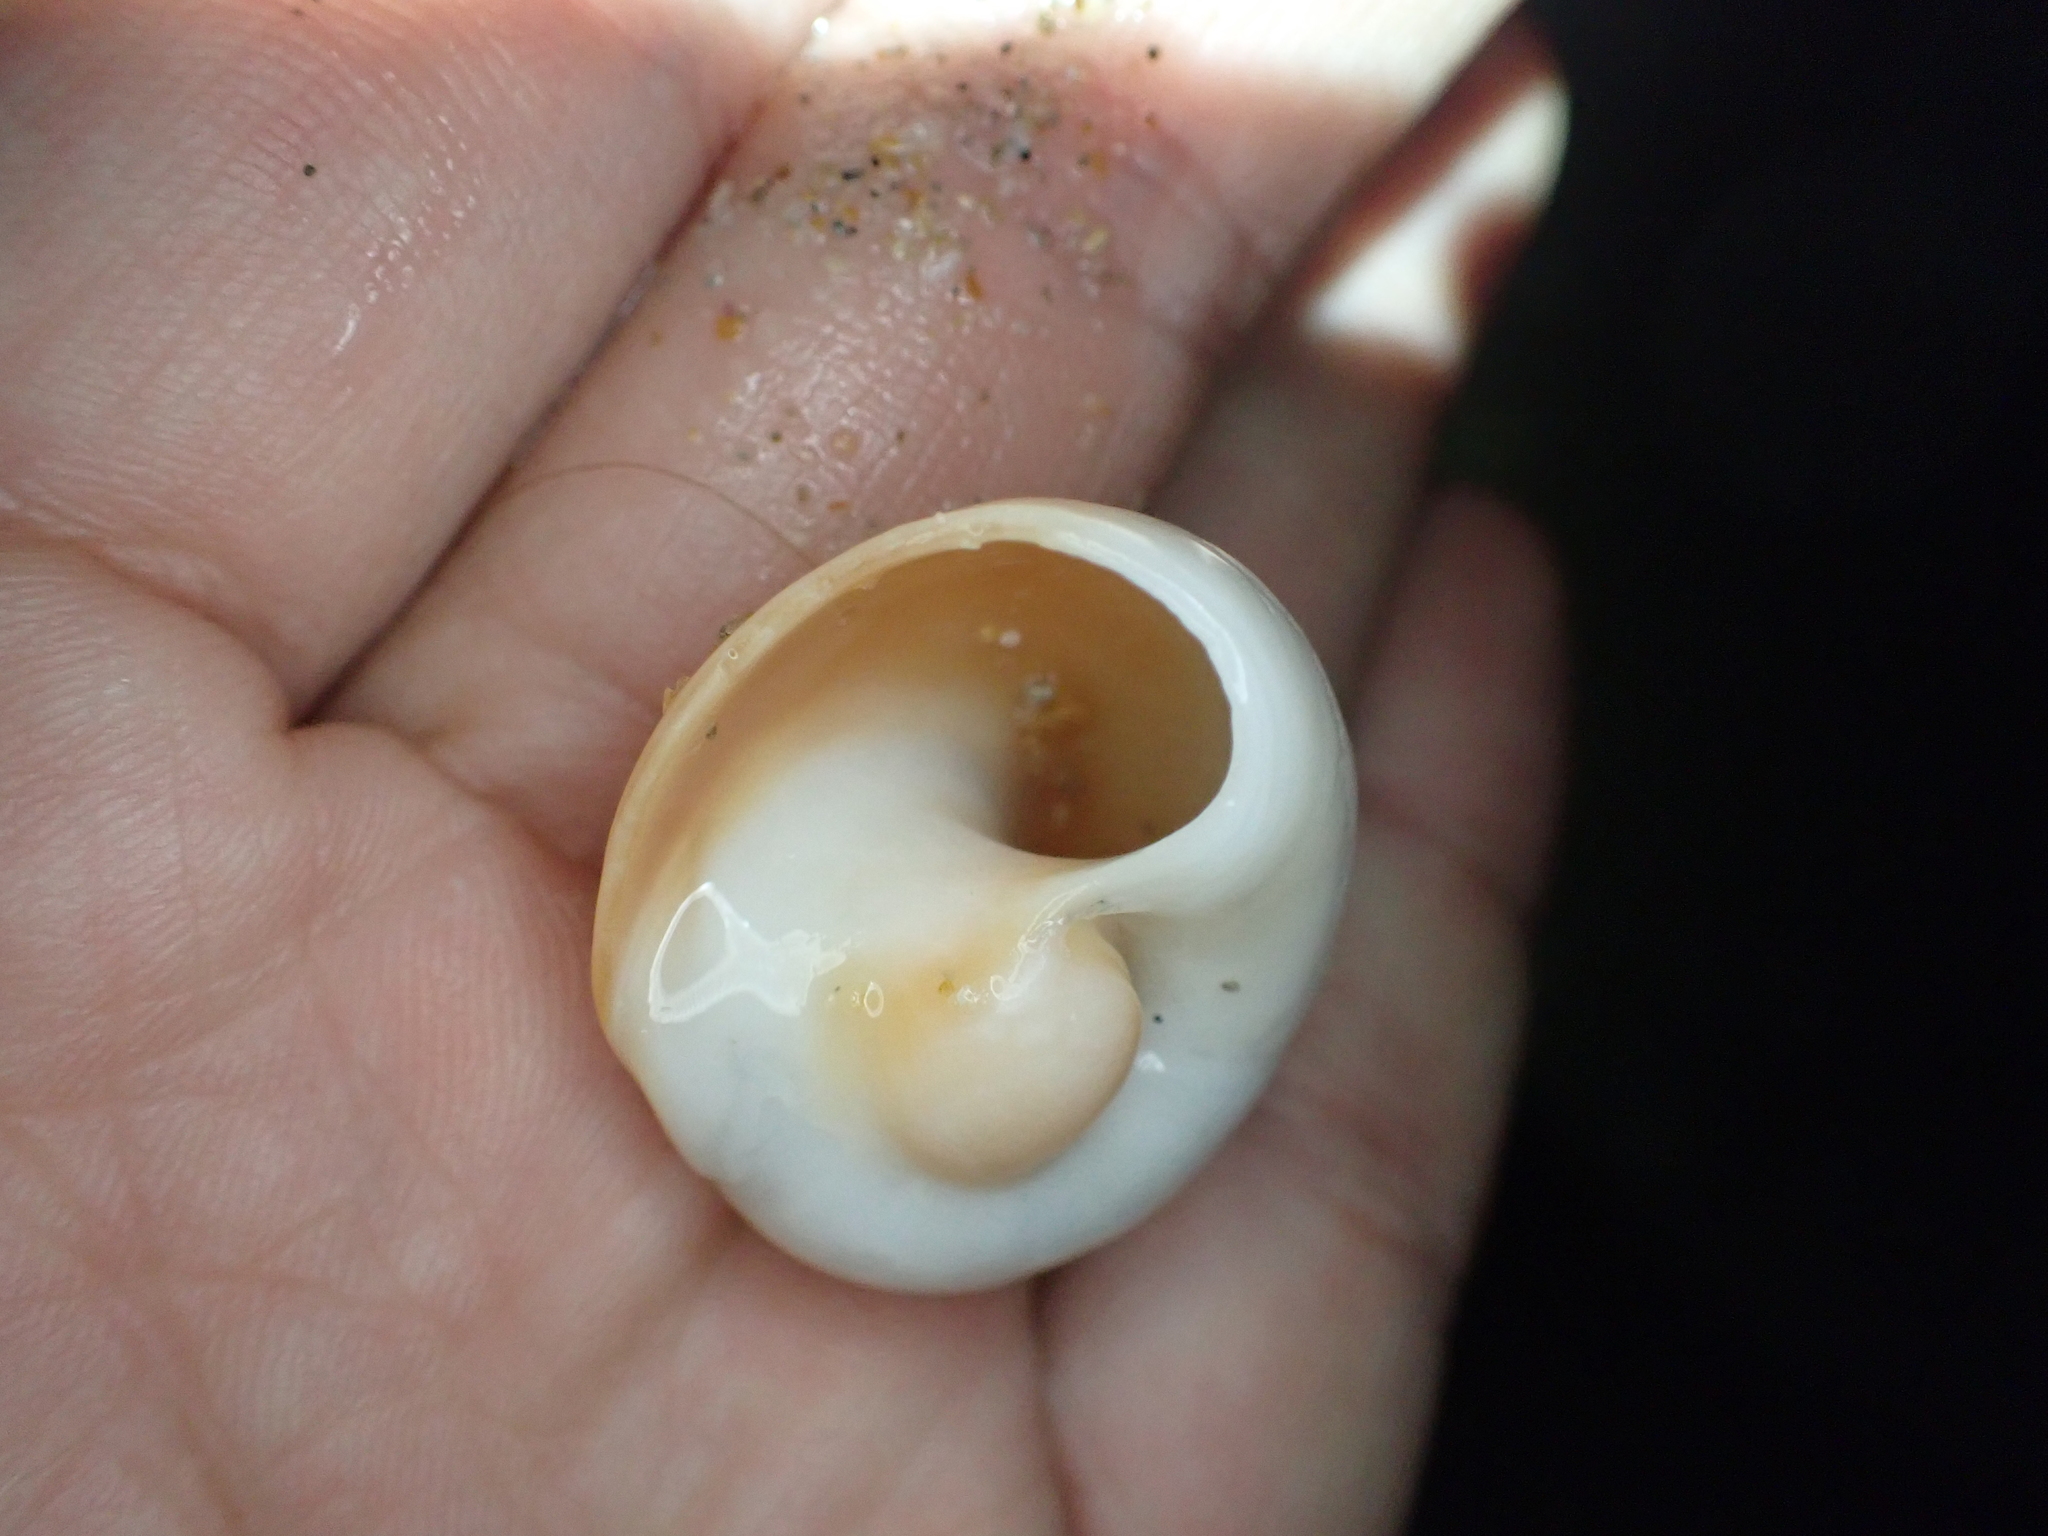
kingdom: Animalia
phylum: Mollusca
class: Gastropoda
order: Littorinimorpha
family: Naticidae
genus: Neverita
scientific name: Neverita duplicata
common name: Lobed moonsnail
